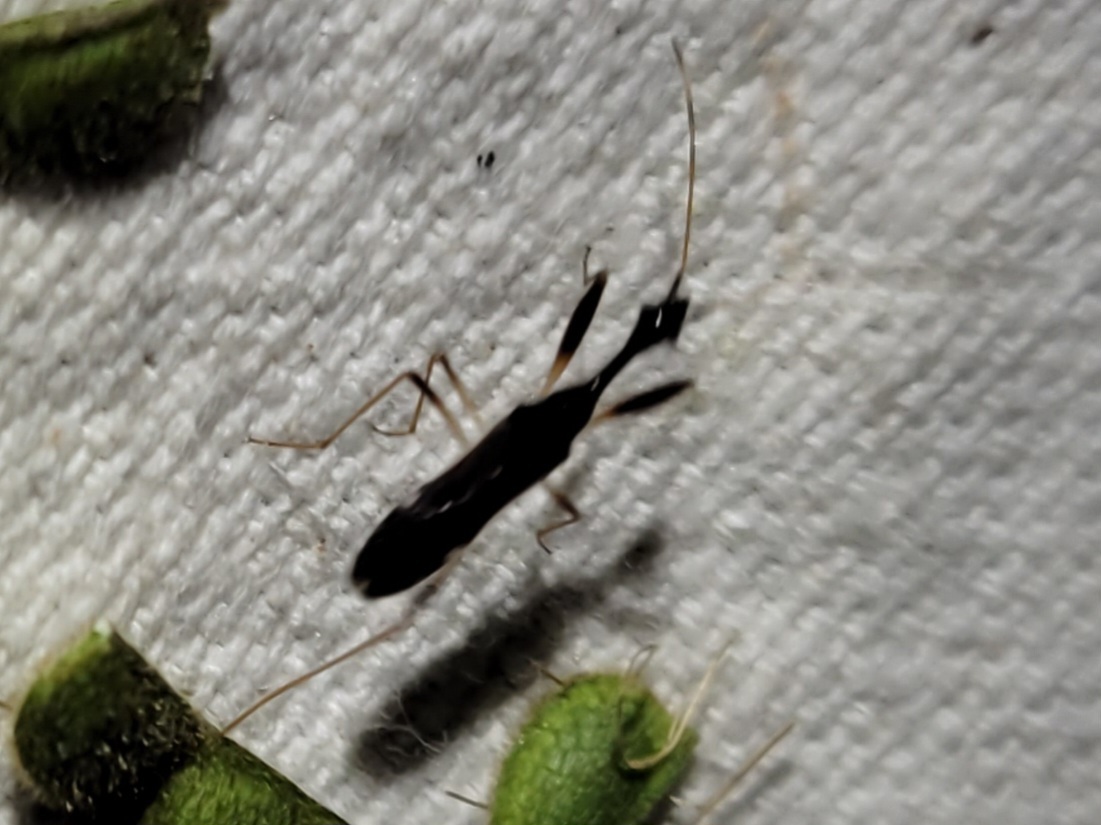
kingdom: Animalia
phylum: Arthropoda
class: Insecta
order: Hemiptera
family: Rhyparochromidae
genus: Myodocha
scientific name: Myodocha annulicornis
